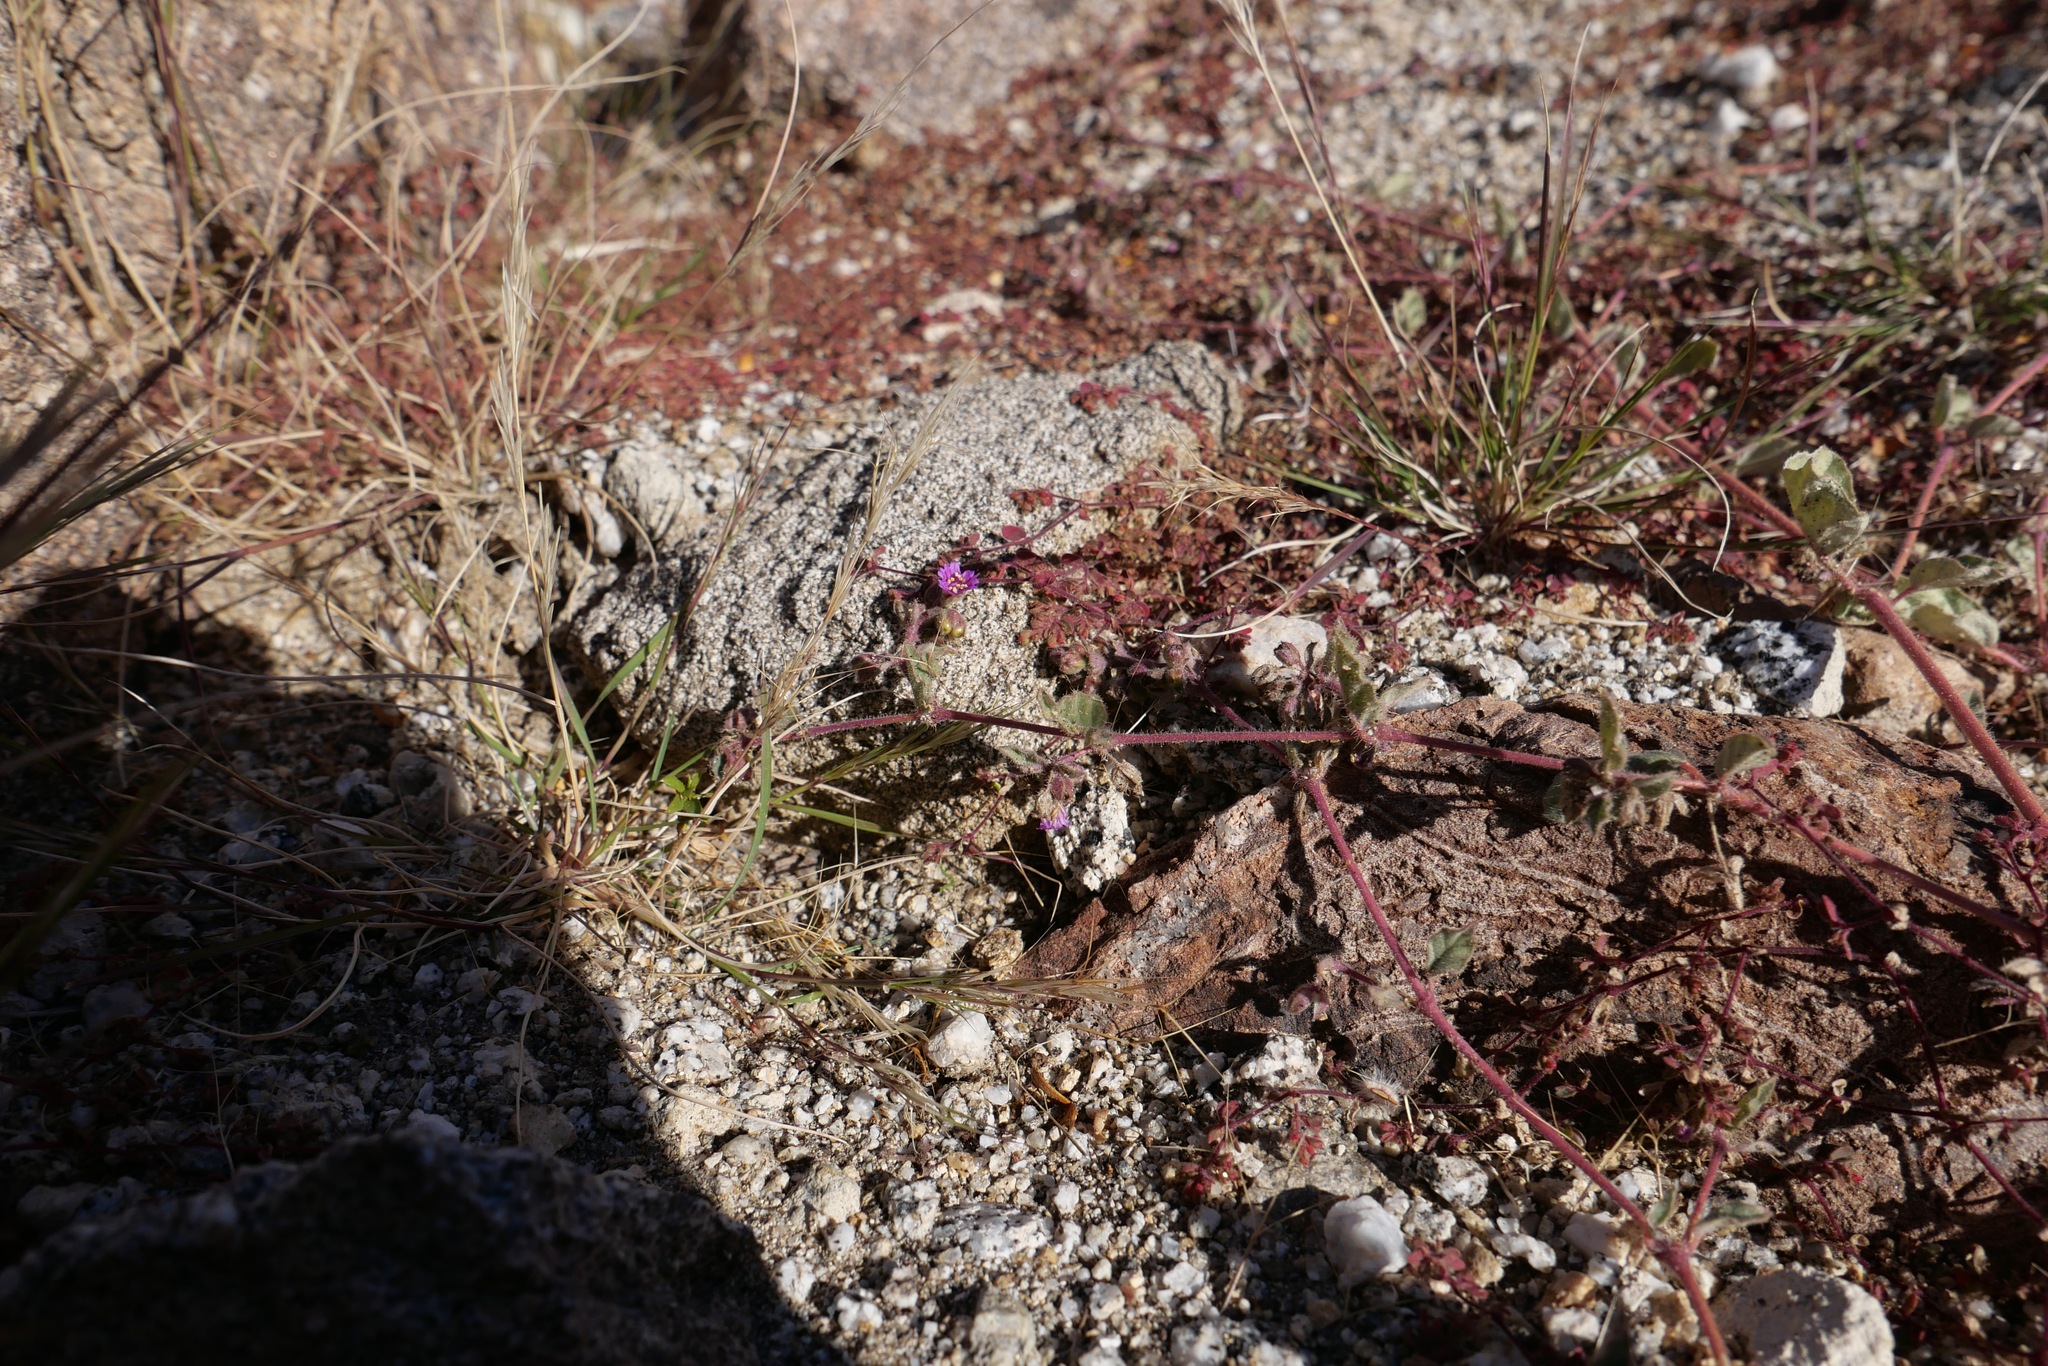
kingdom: Plantae
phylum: Tracheophyta
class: Magnoliopsida
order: Caryophyllales
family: Nyctaginaceae
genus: Allionia
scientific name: Allionia incarnata
